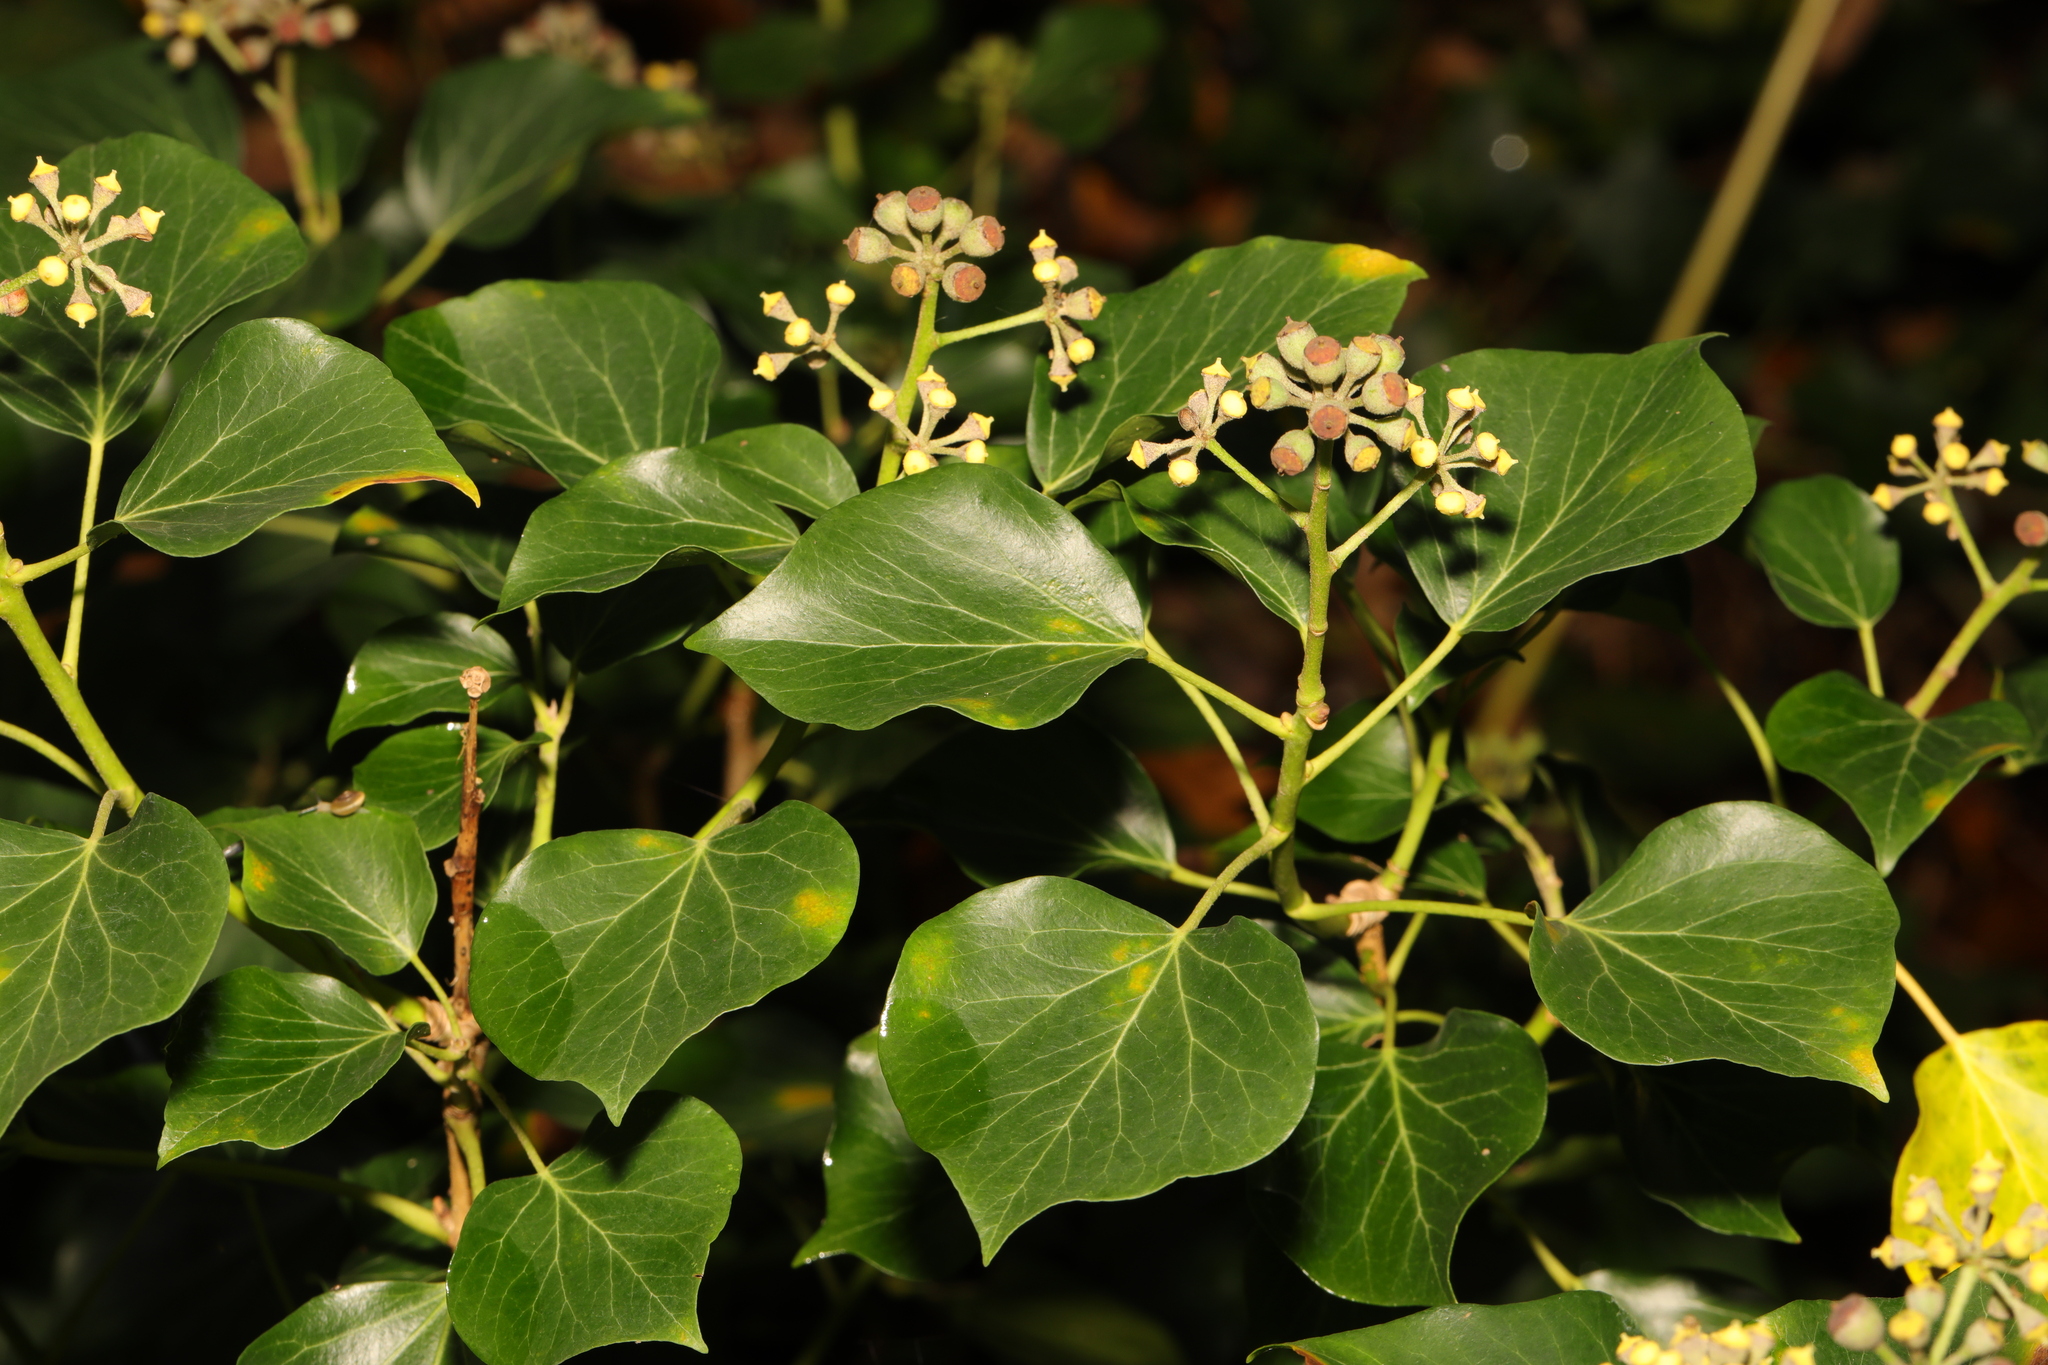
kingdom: Plantae
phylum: Tracheophyta
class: Magnoliopsida
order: Apiales
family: Araliaceae
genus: Hedera
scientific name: Hedera helix
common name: Ivy
